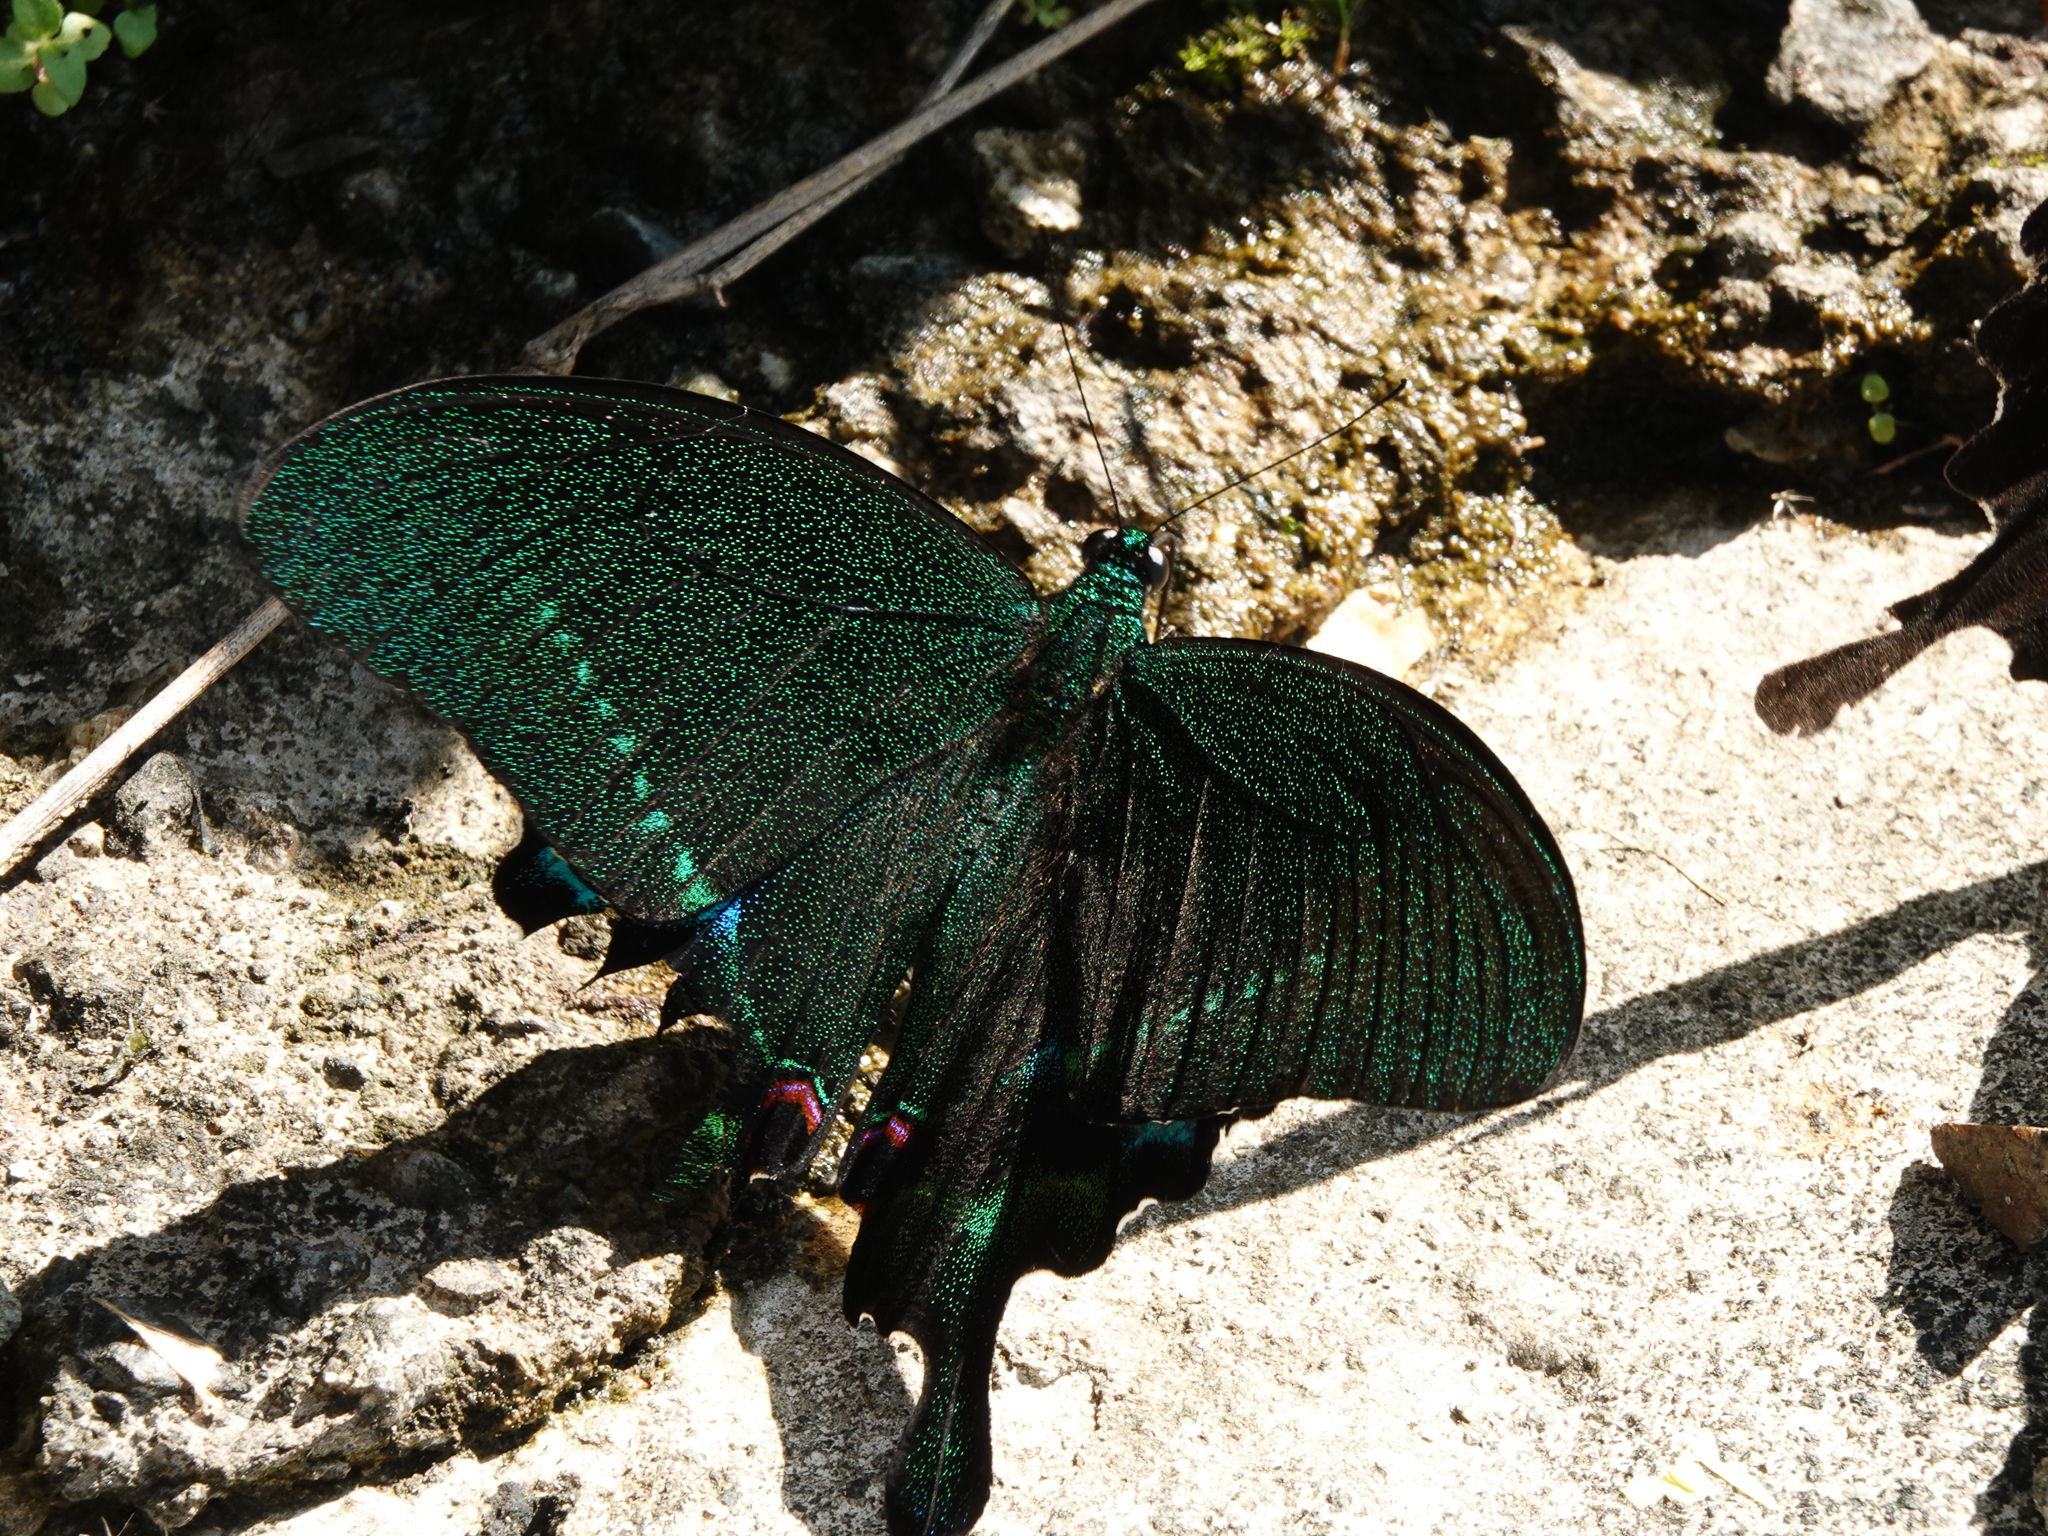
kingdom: Animalia
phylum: Arthropoda
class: Insecta
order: Lepidoptera
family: Papilionidae
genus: Papilio
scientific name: Papilio paris
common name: Paris peacock
